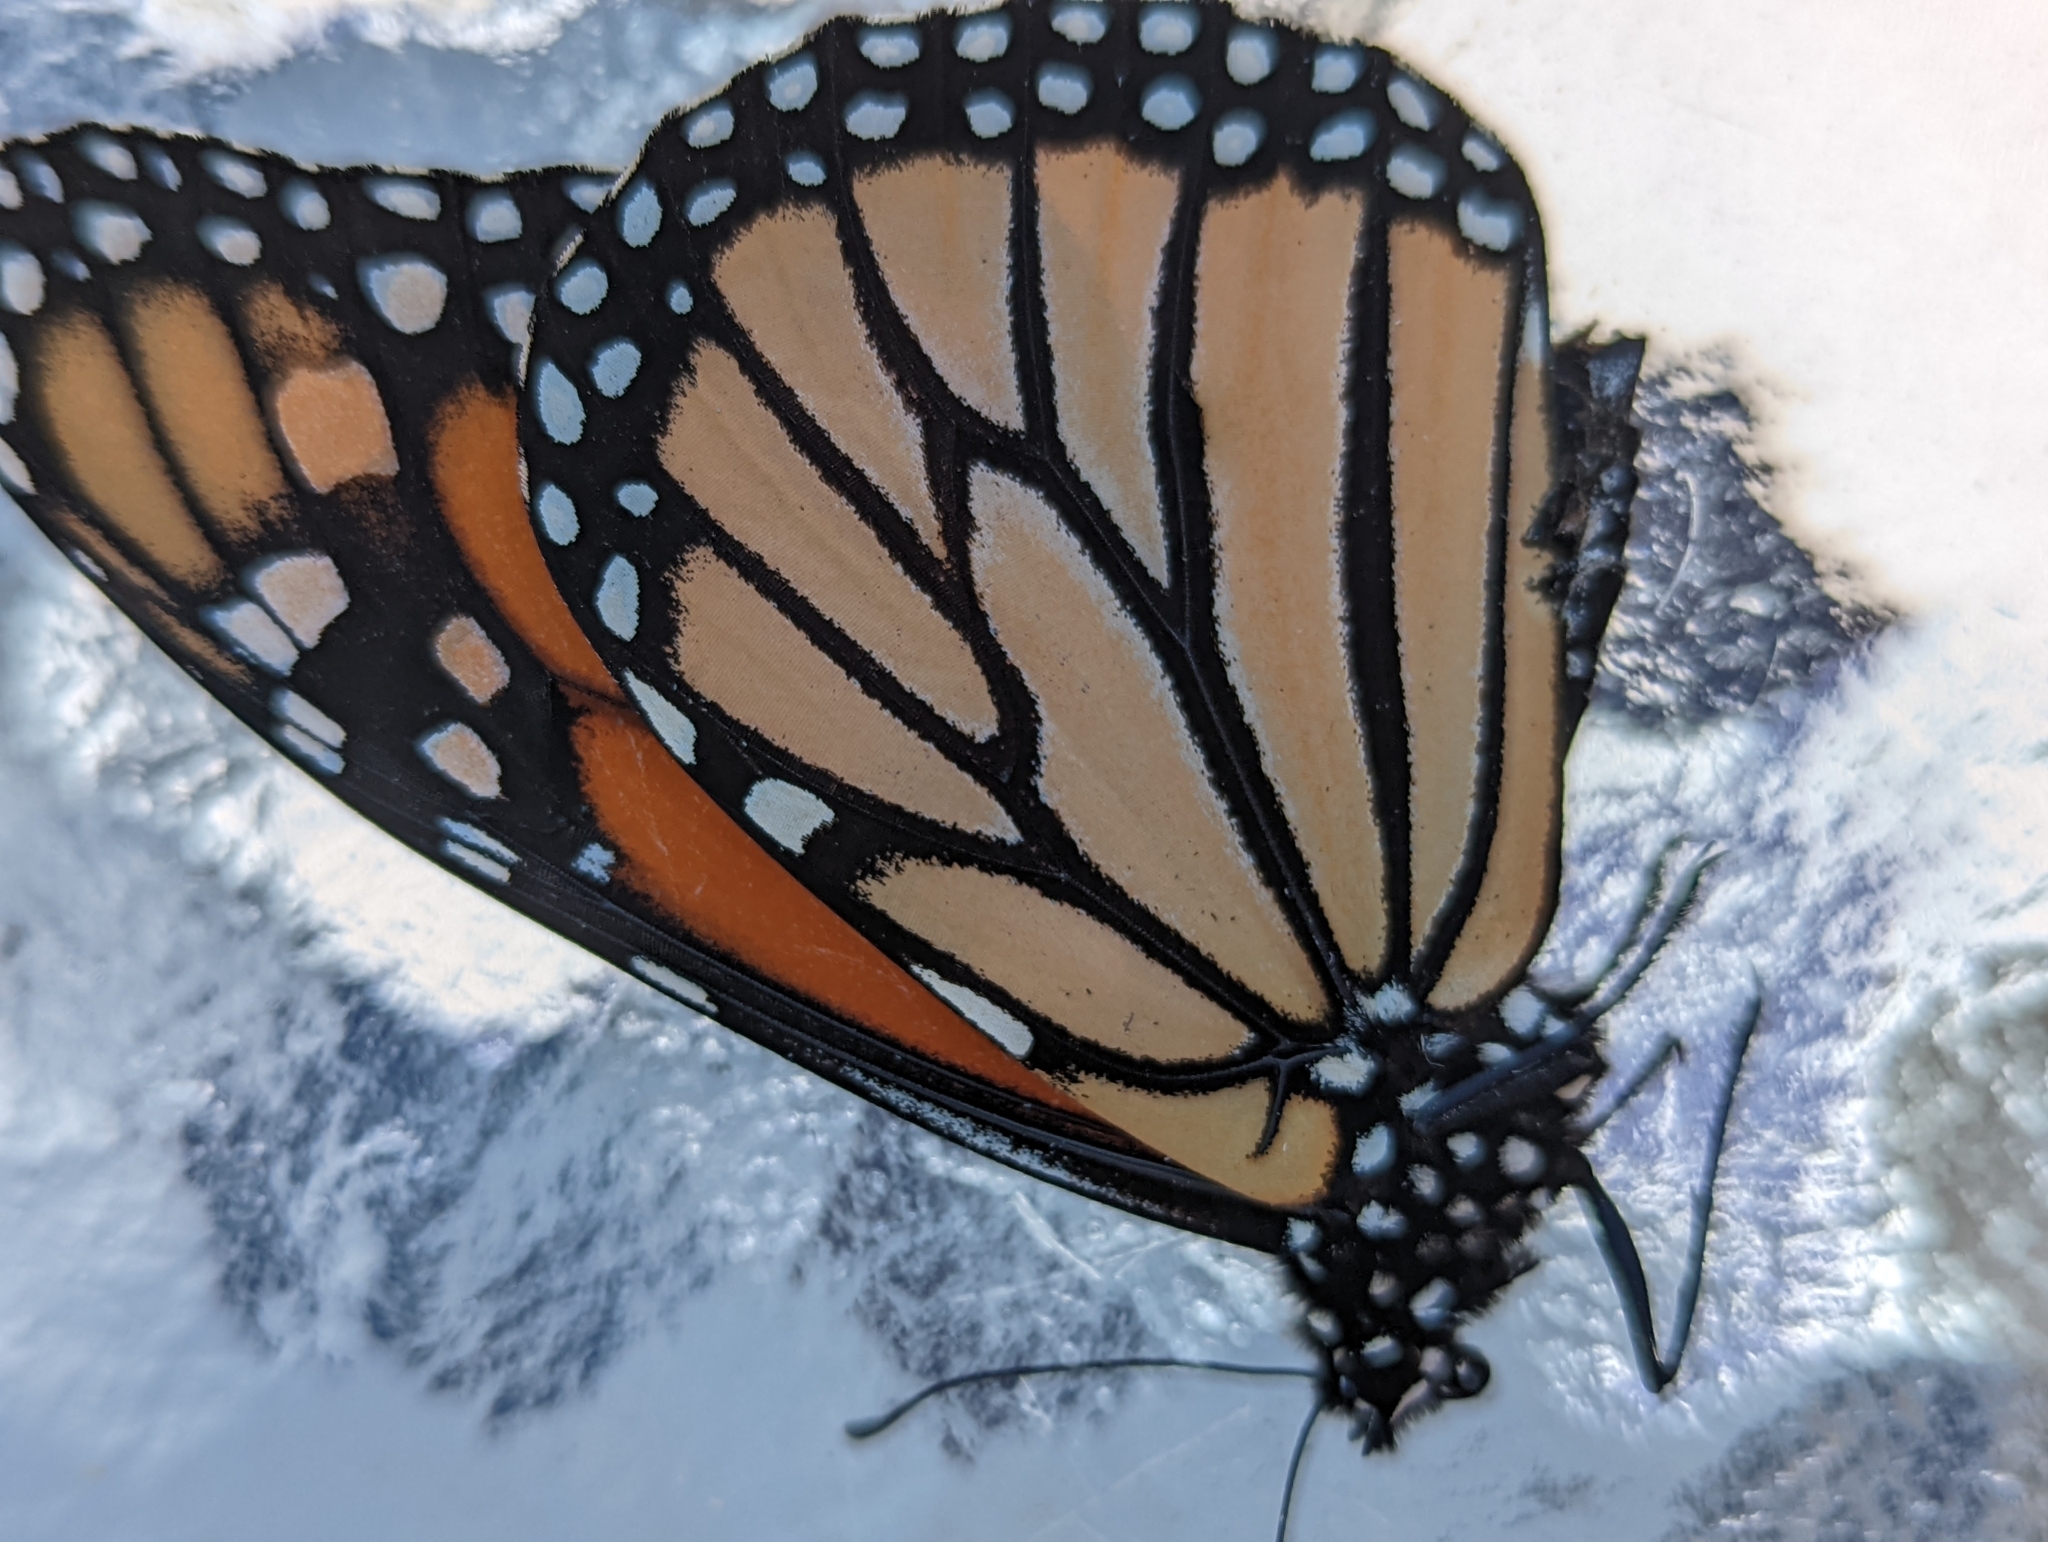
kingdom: Animalia
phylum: Arthropoda
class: Insecta
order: Lepidoptera
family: Nymphalidae
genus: Danaus
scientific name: Danaus plexippus
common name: Monarch
